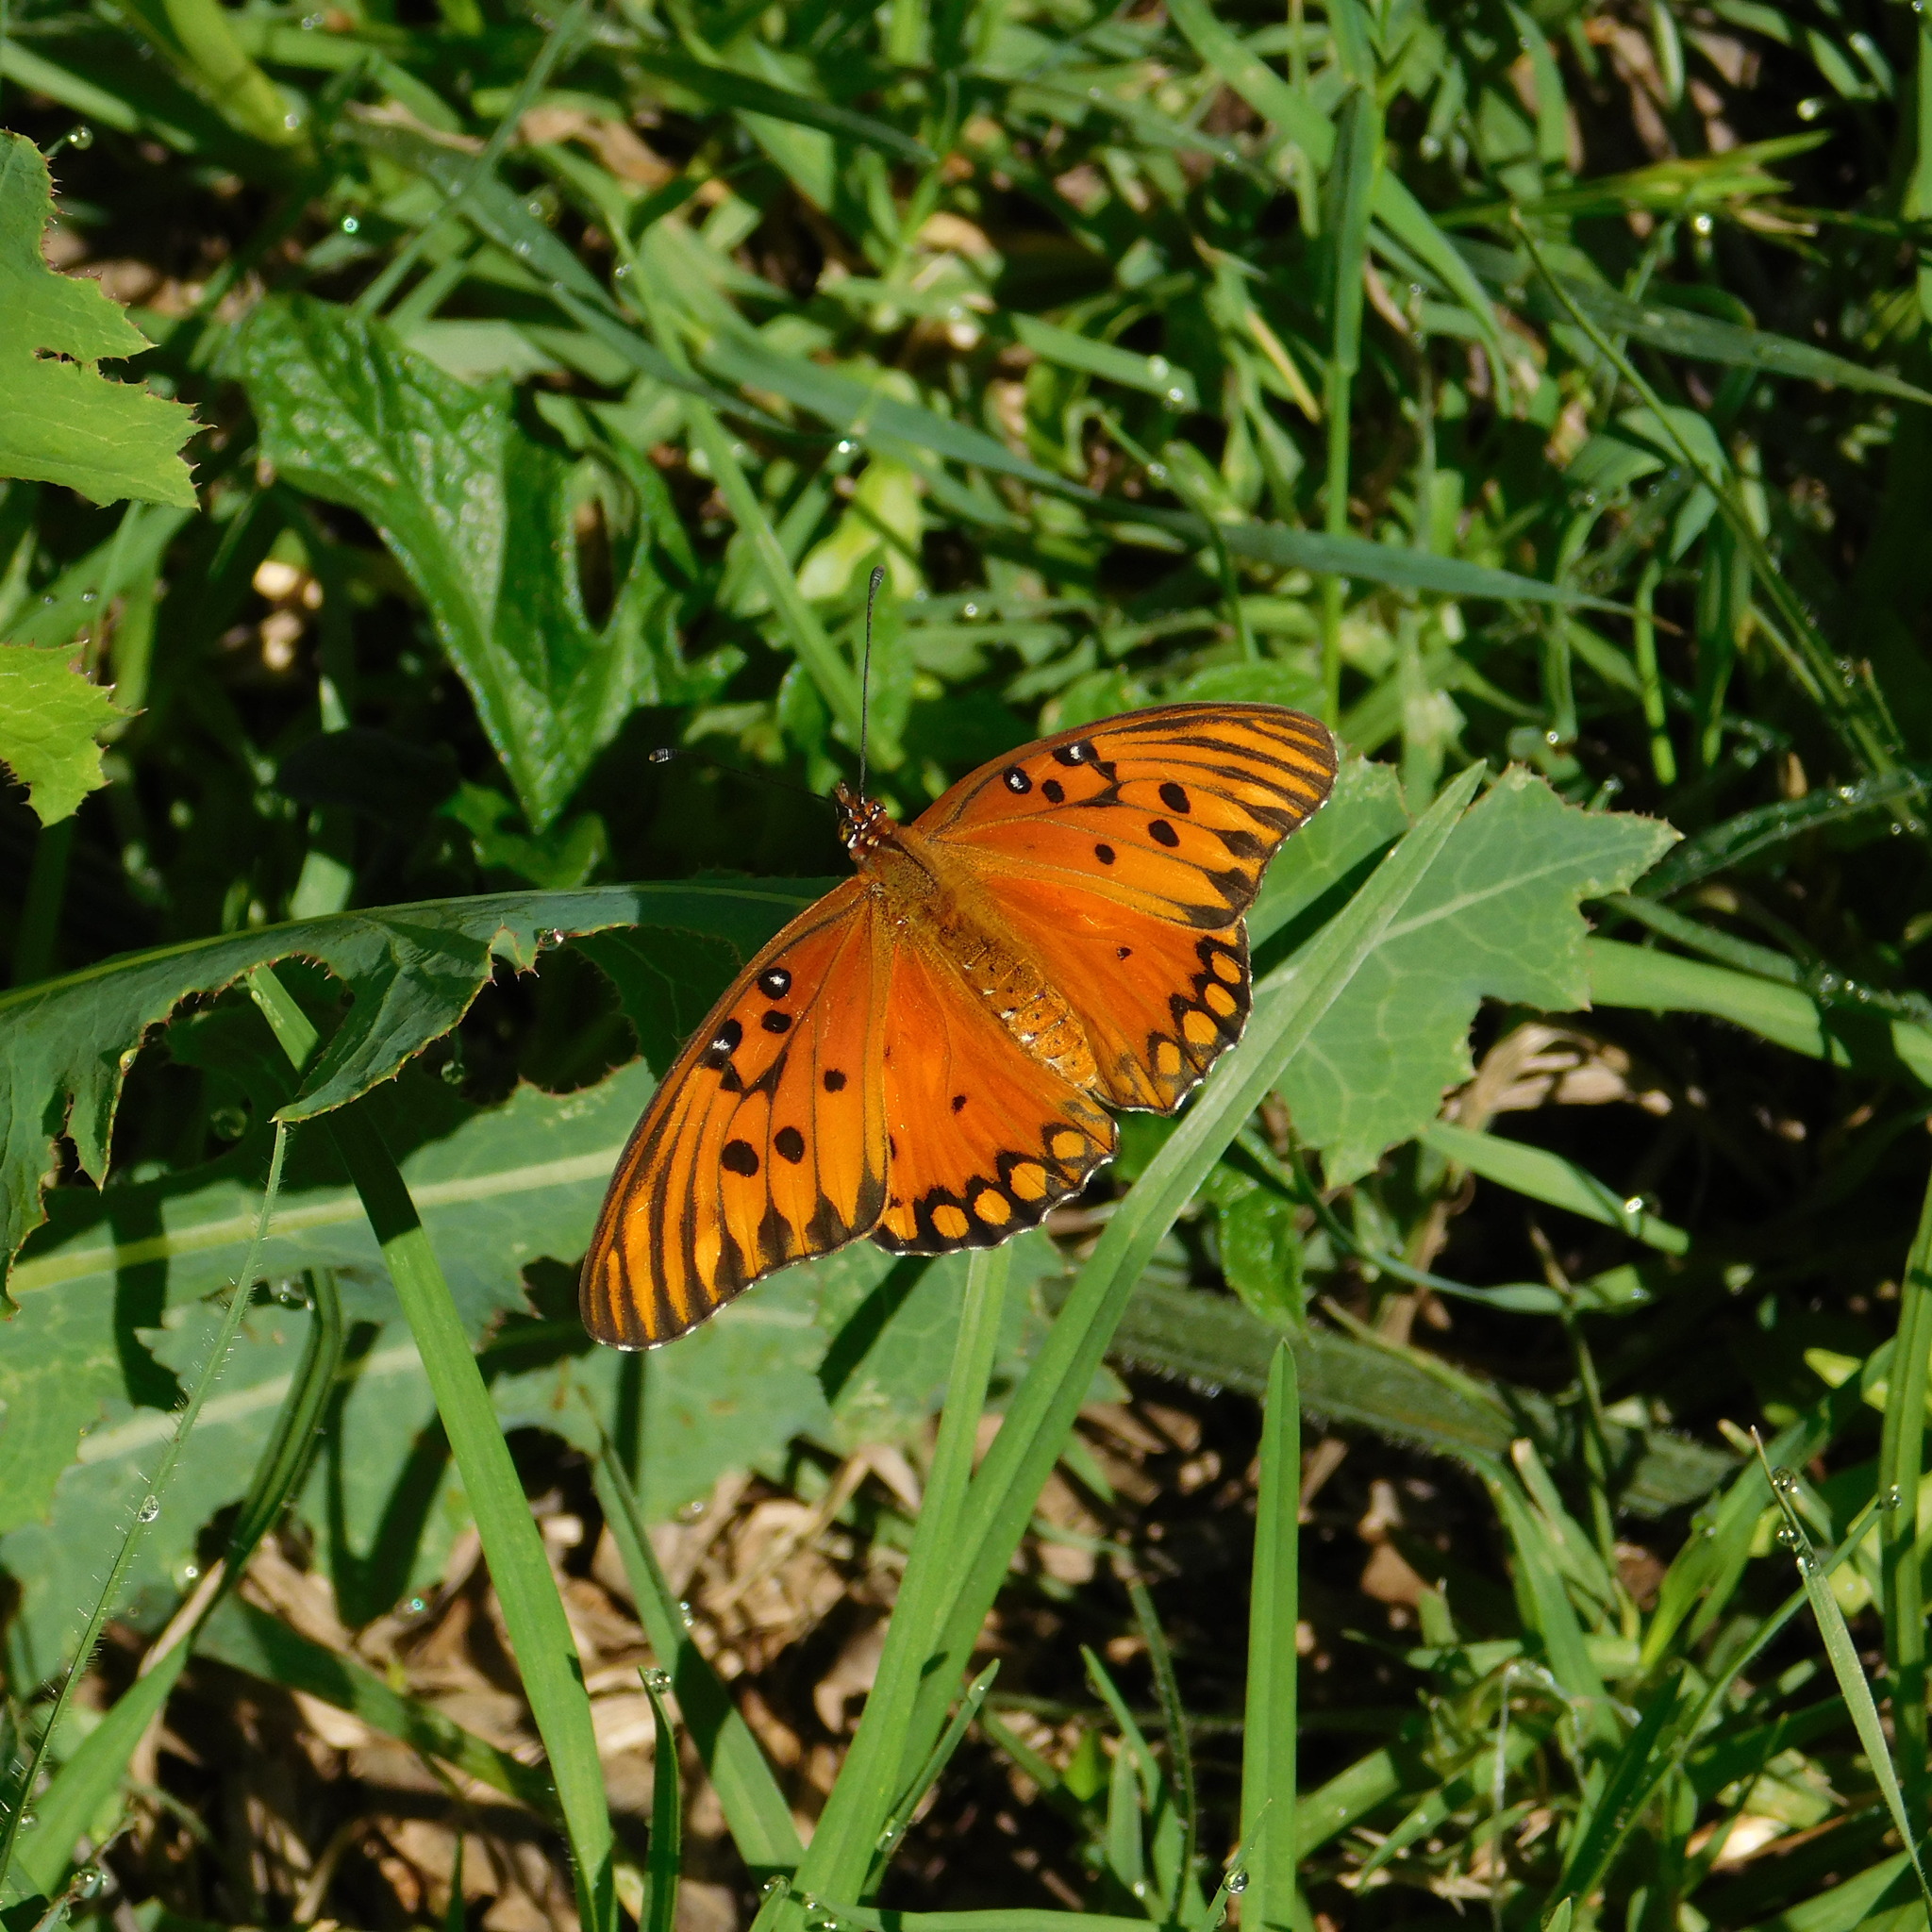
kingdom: Animalia
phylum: Arthropoda
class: Insecta
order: Lepidoptera
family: Nymphalidae
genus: Dione
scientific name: Dione vanillae
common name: Gulf fritillary
